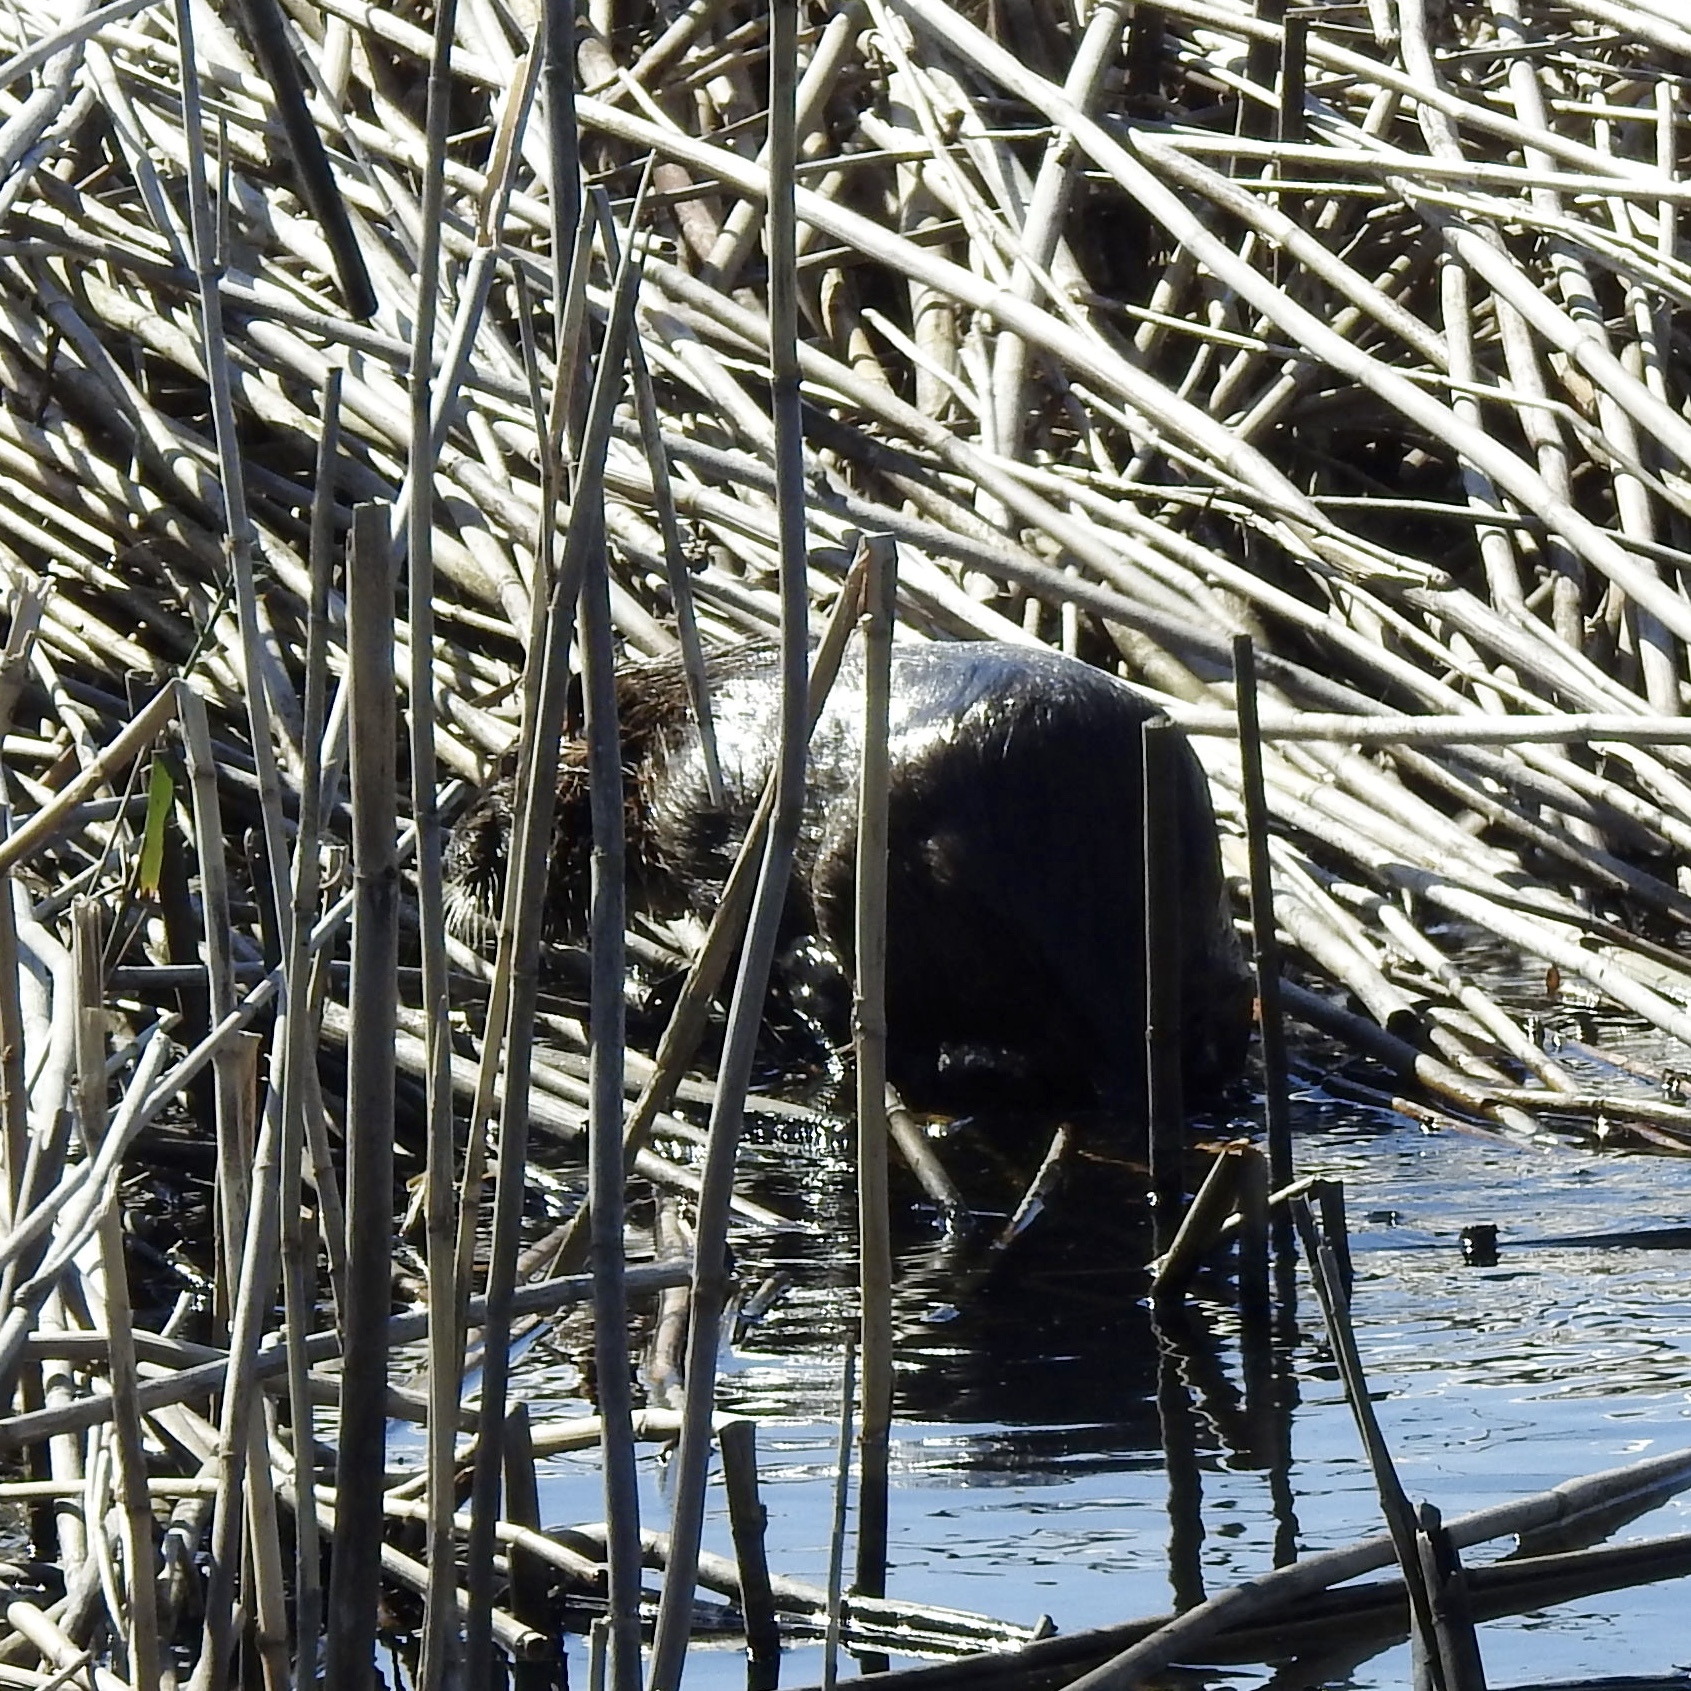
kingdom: Animalia
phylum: Chordata
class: Mammalia
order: Rodentia
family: Myocastoridae
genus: Myocastor
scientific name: Myocastor coypus
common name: Coypu
